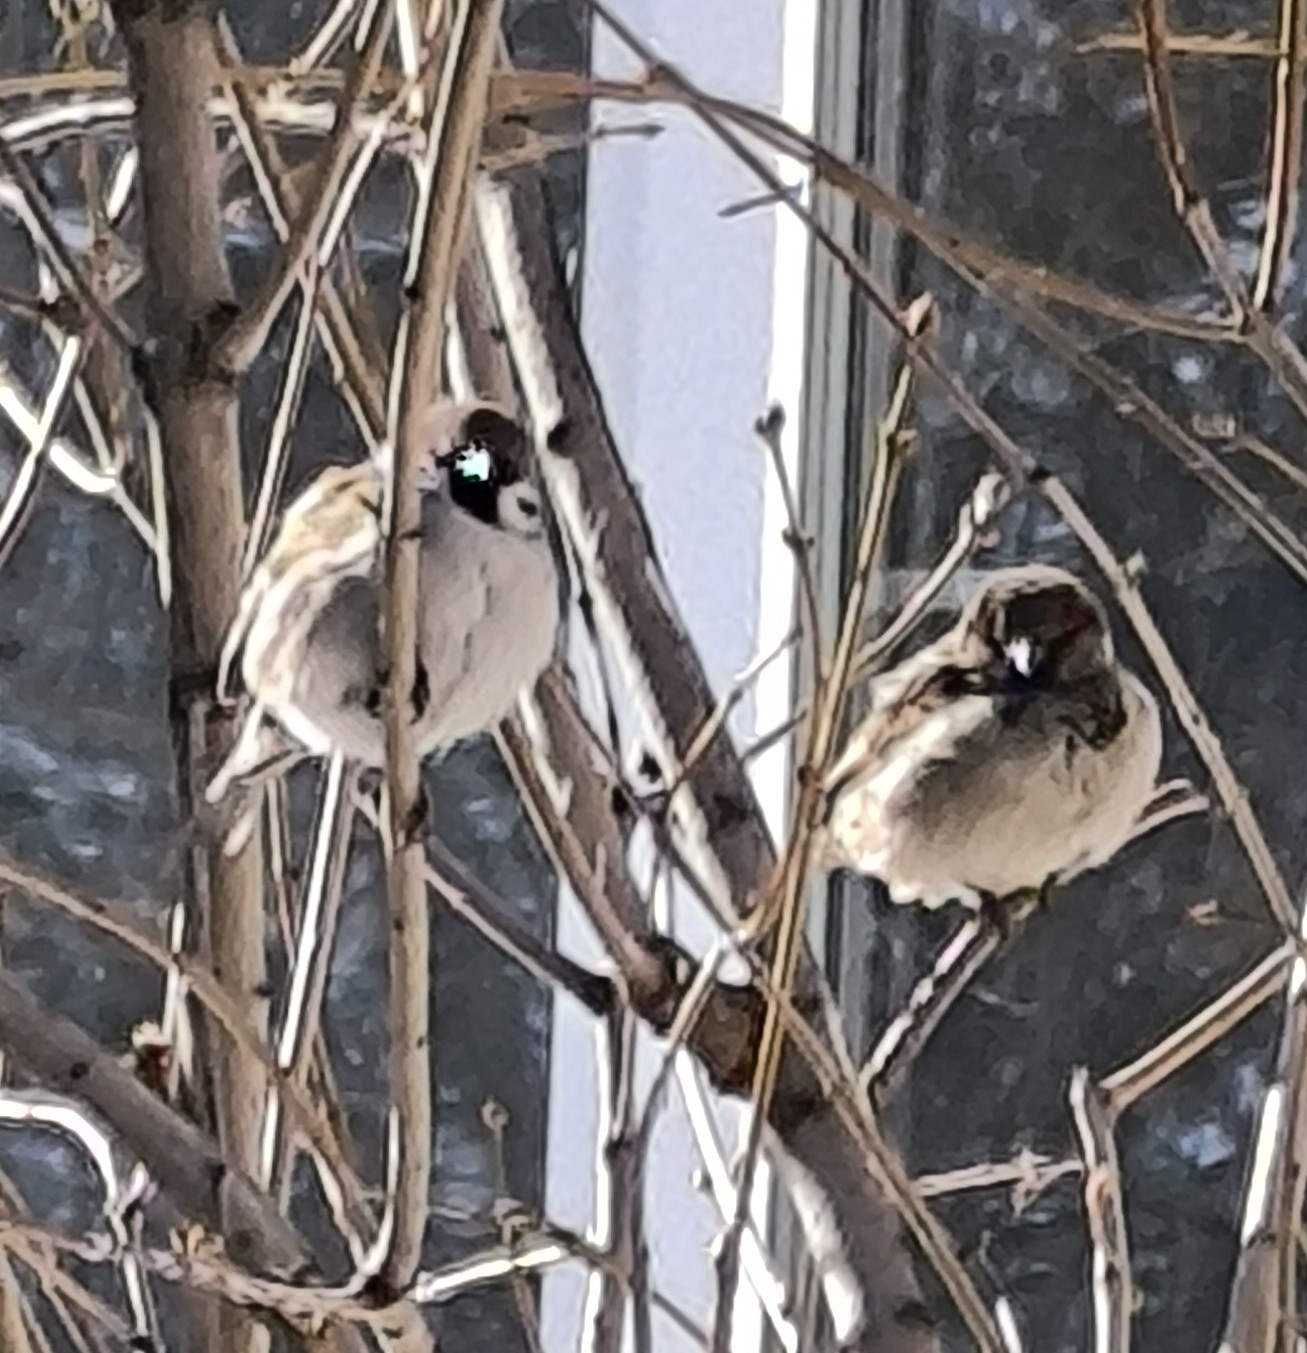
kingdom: Animalia
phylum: Chordata
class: Aves
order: Passeriformes
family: Passeridae
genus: Passer
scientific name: Passer domesticus
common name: House sparrow
